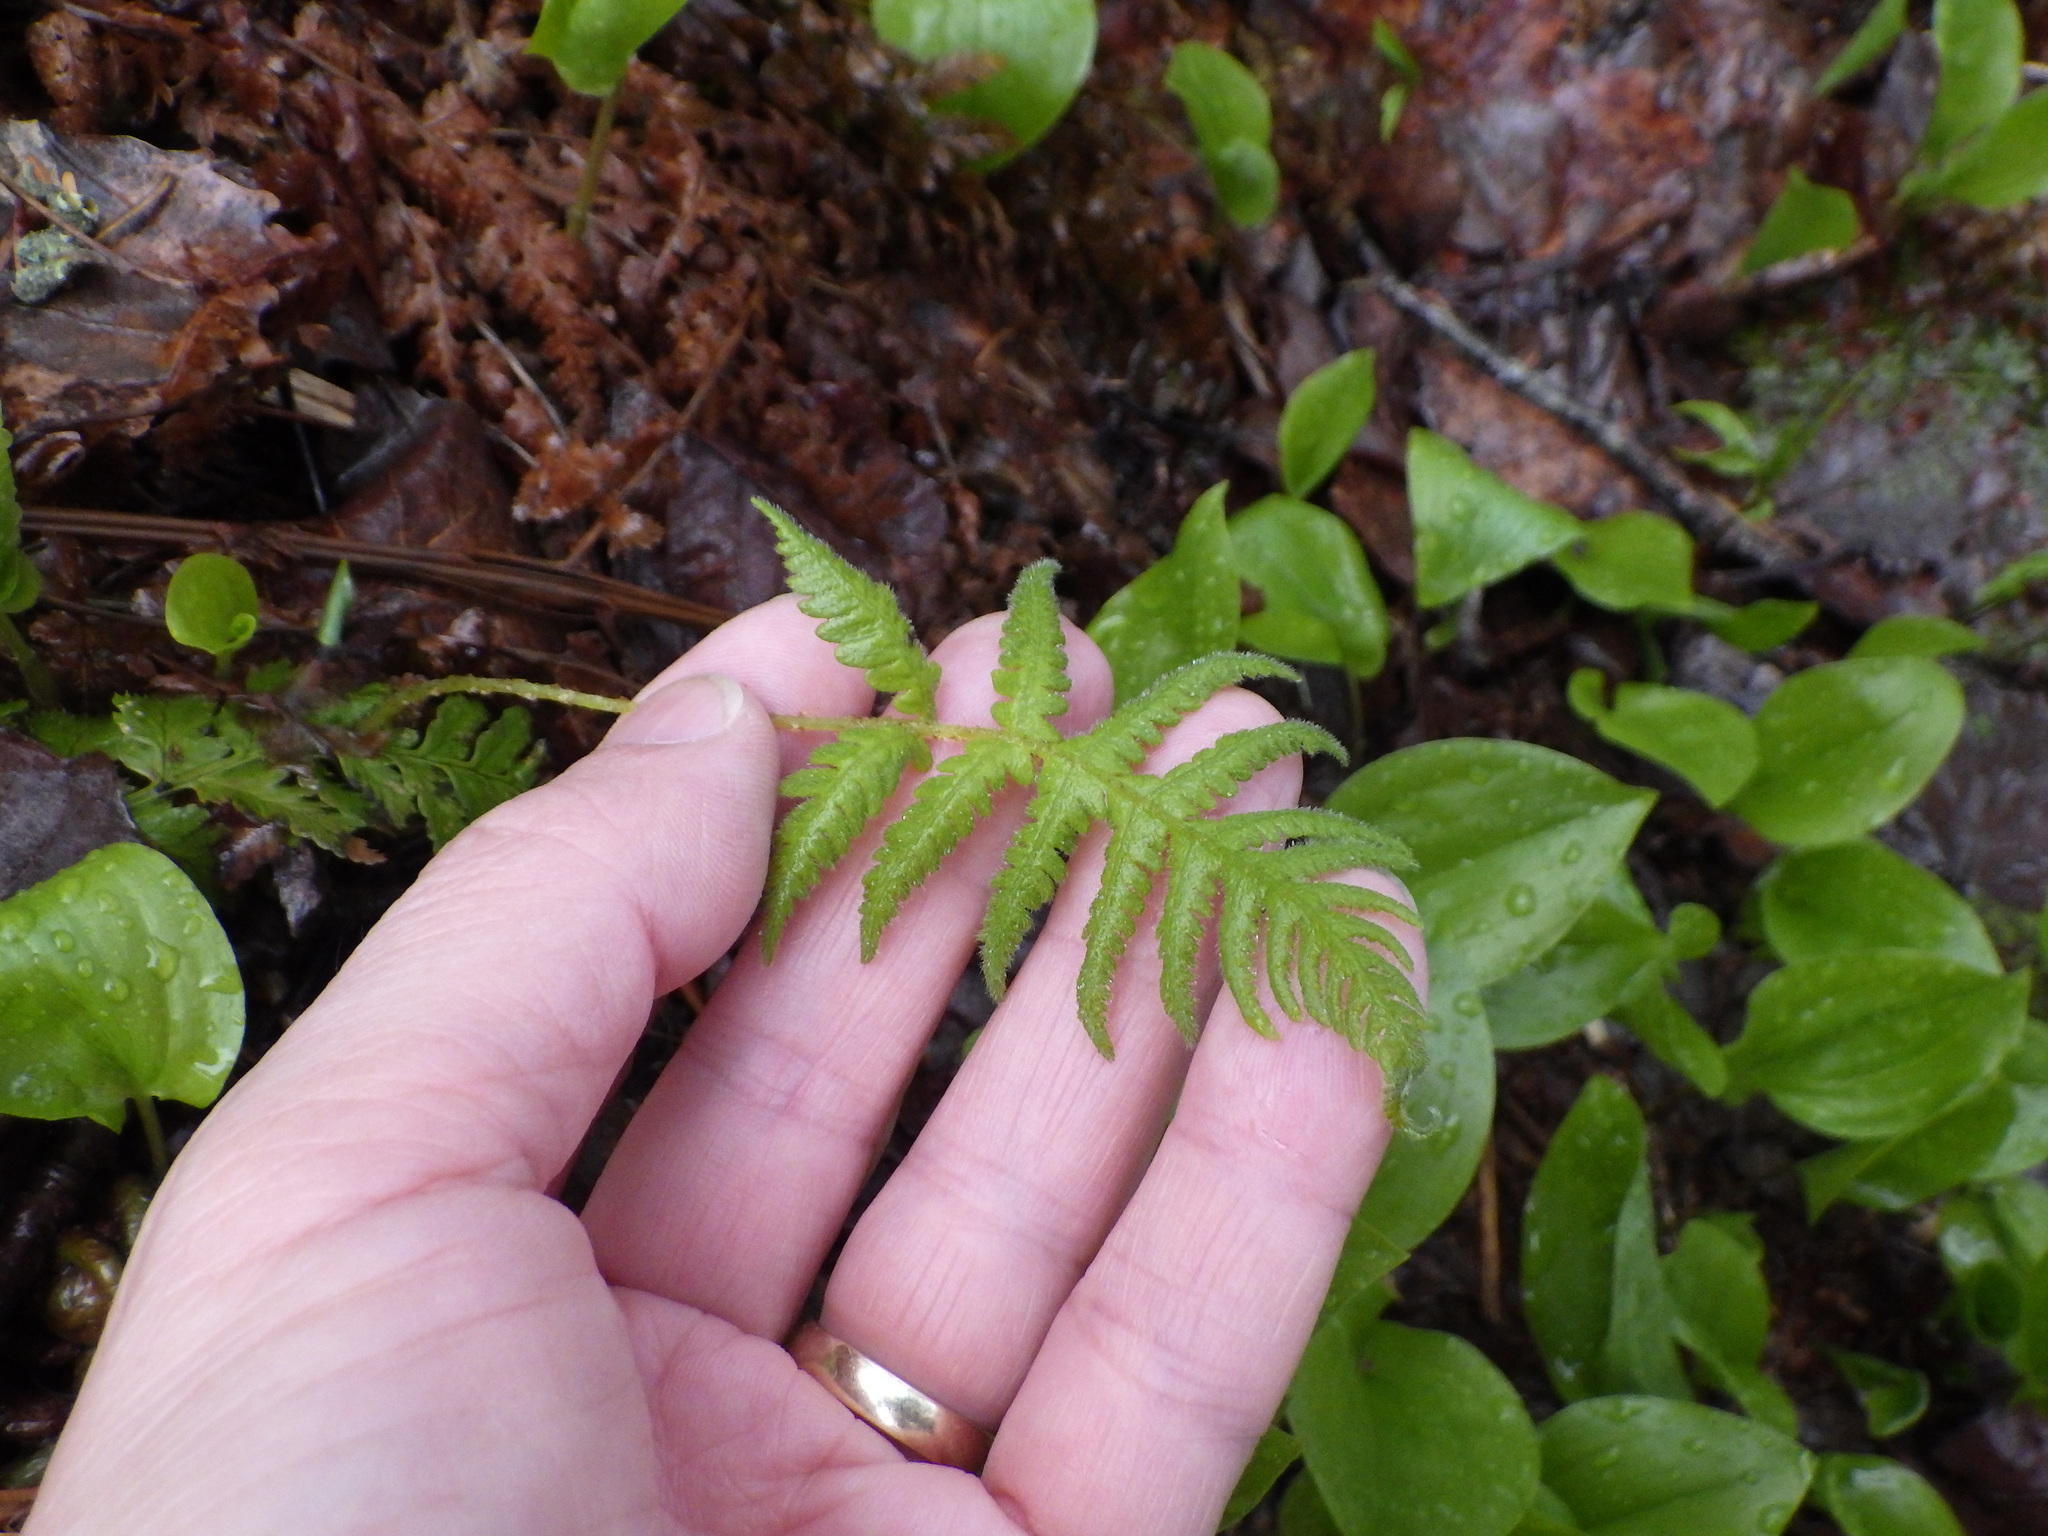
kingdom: Plantae
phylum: Tracheophyta
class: Polypodiopsida
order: Polypodiales
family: Thelypteridaceae
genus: Phegopteris
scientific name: Phegopteris connectilis
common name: Beech fern
